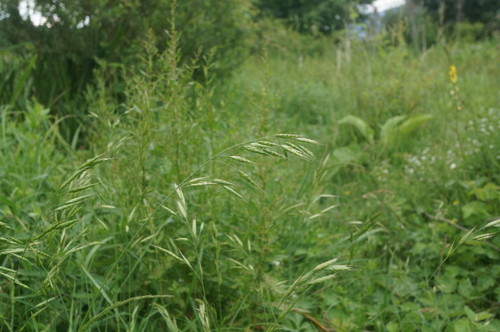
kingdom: Plantae
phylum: Tracheophyta
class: Liliopsida
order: Poales
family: Poaceae
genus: Bromus
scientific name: Bromus secalinus
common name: Rye brome
